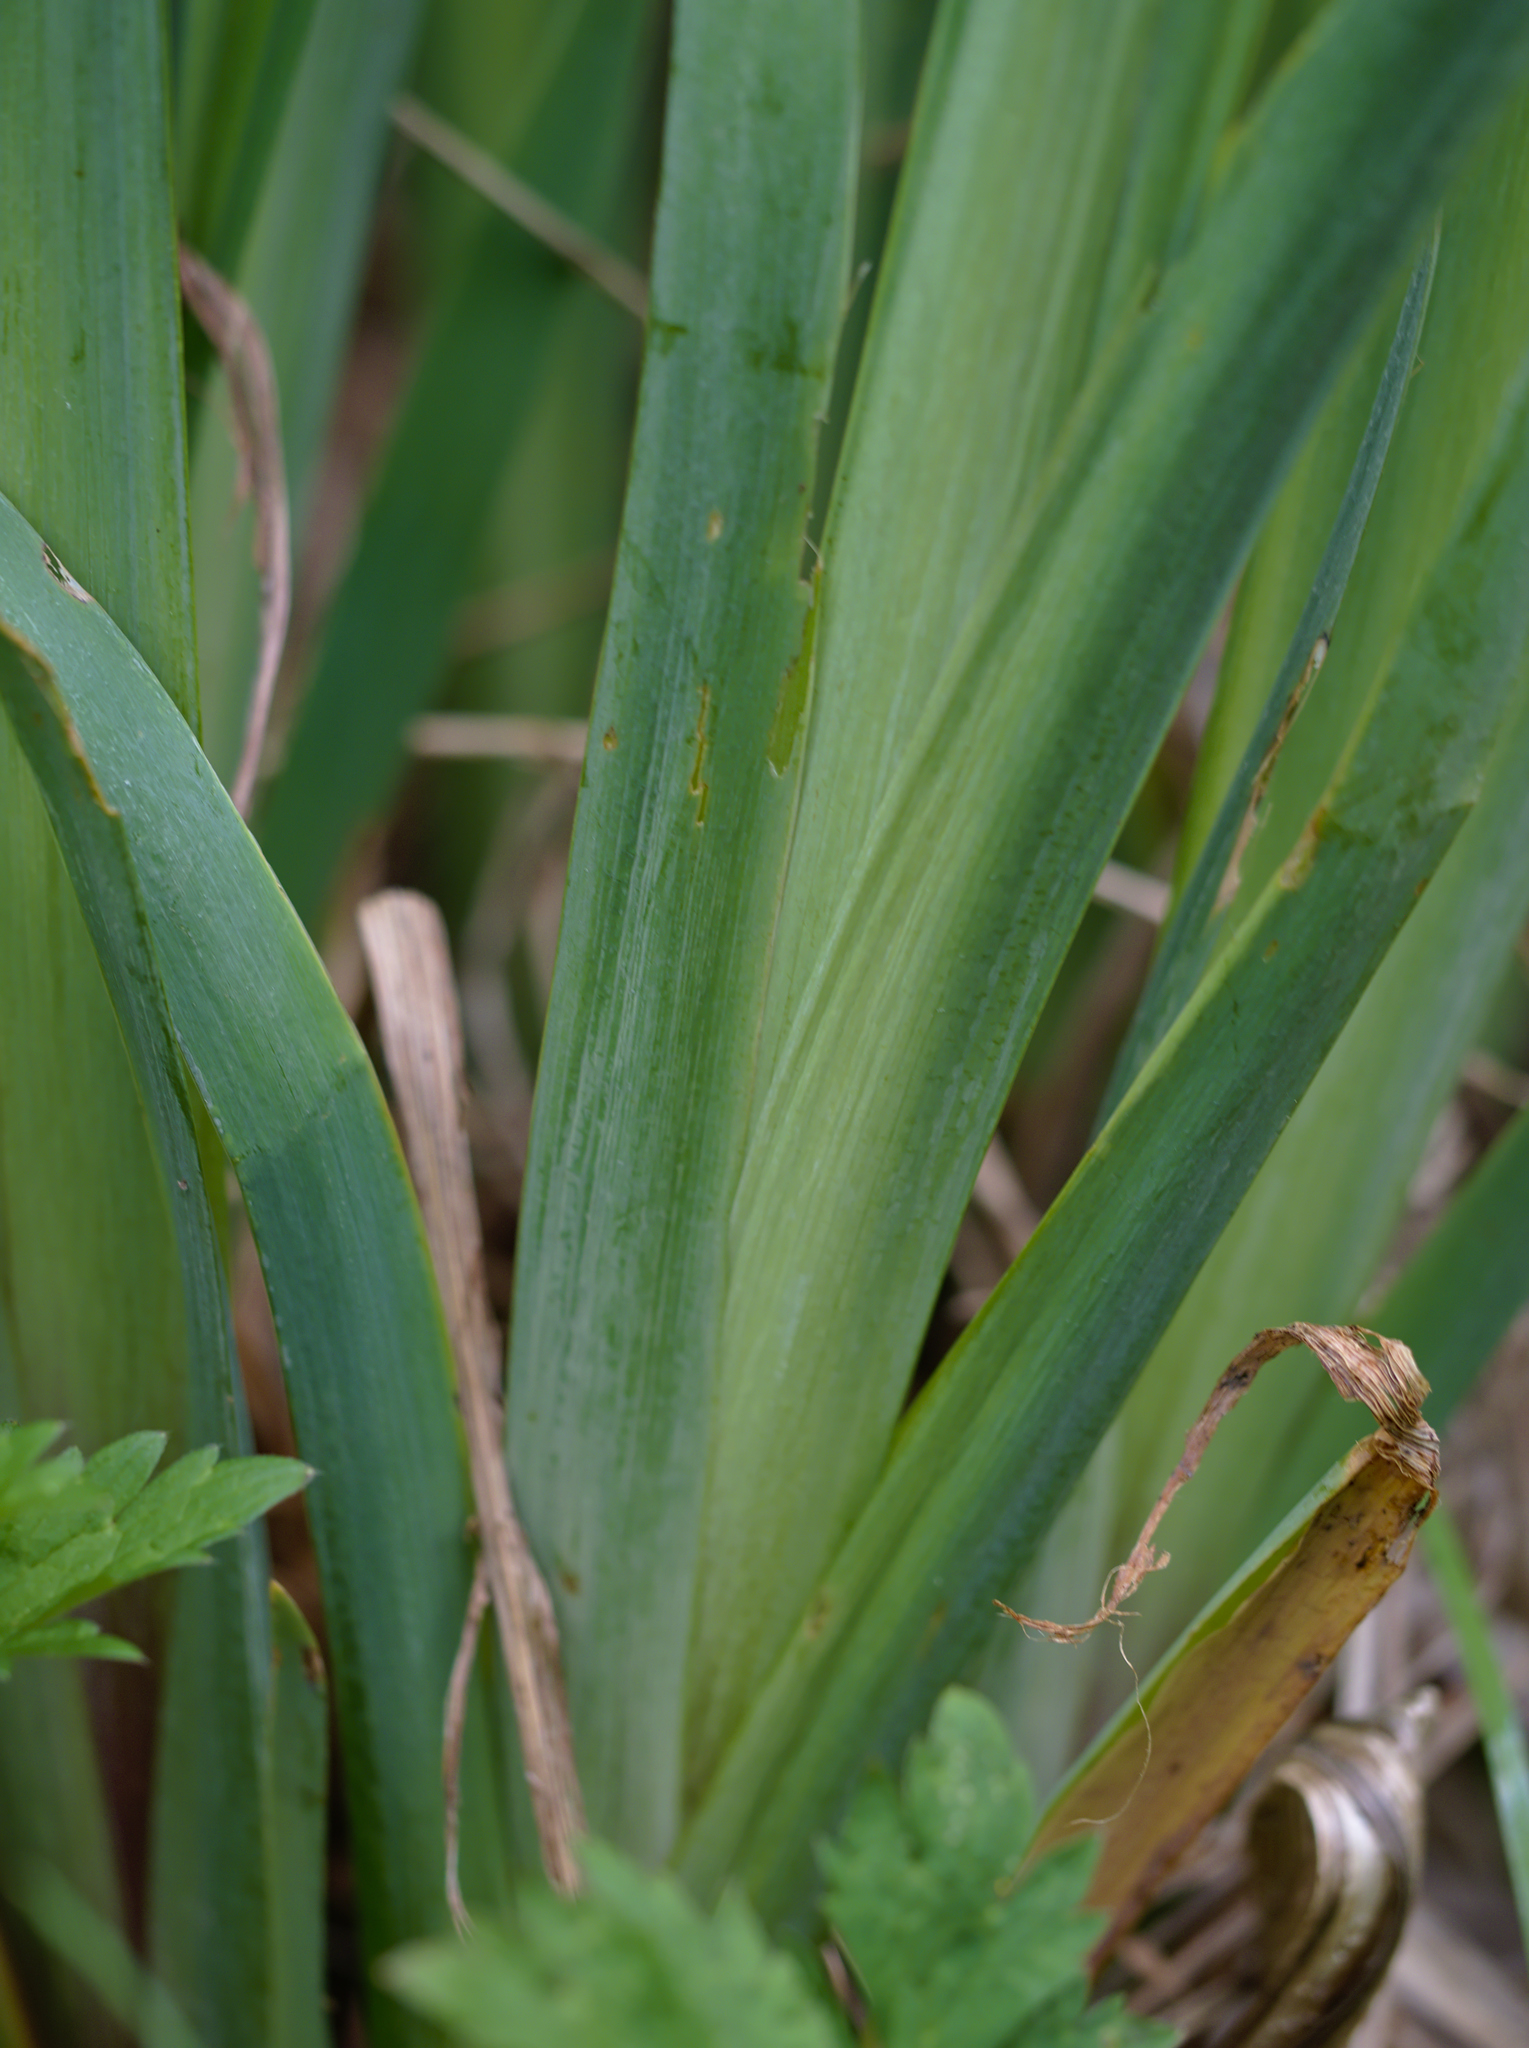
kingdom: Plantae
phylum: Tracheophyta
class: Liliopsida
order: Asparagales
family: Iridaceae
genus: Iris
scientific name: Iris pseudacorus
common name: Yellow flag
